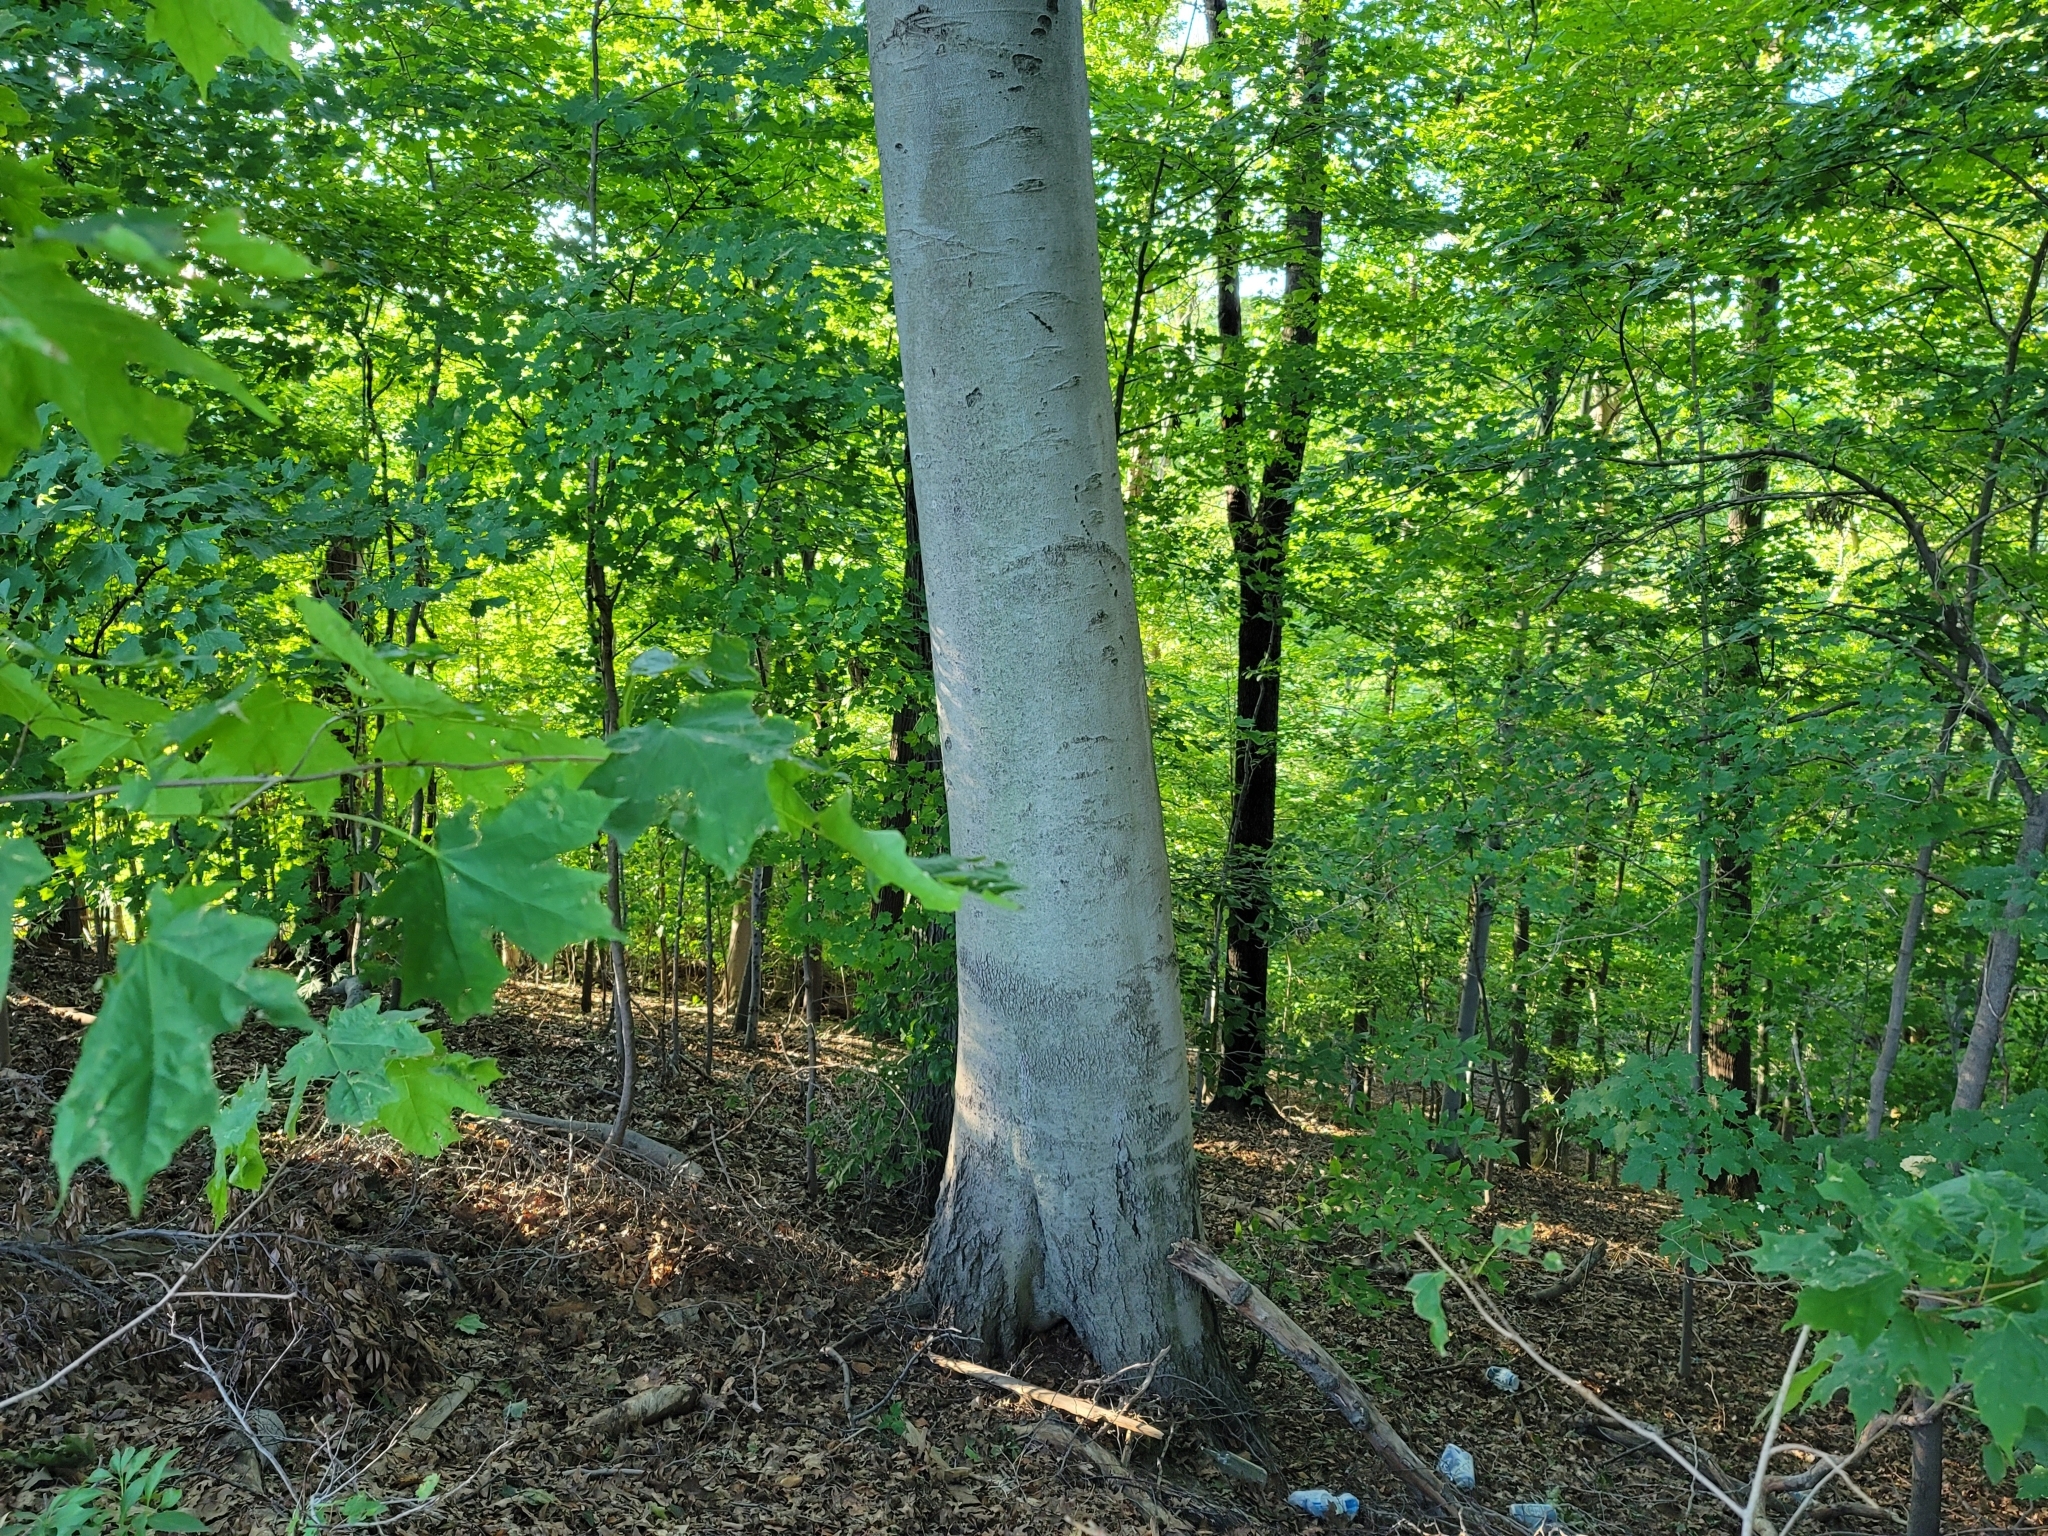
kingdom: Plantae
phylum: Tracheophyta
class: Magnoliopsida
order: Fagales
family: Fagaceae
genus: Fagus
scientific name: Fagus grandifolia
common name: American beech
